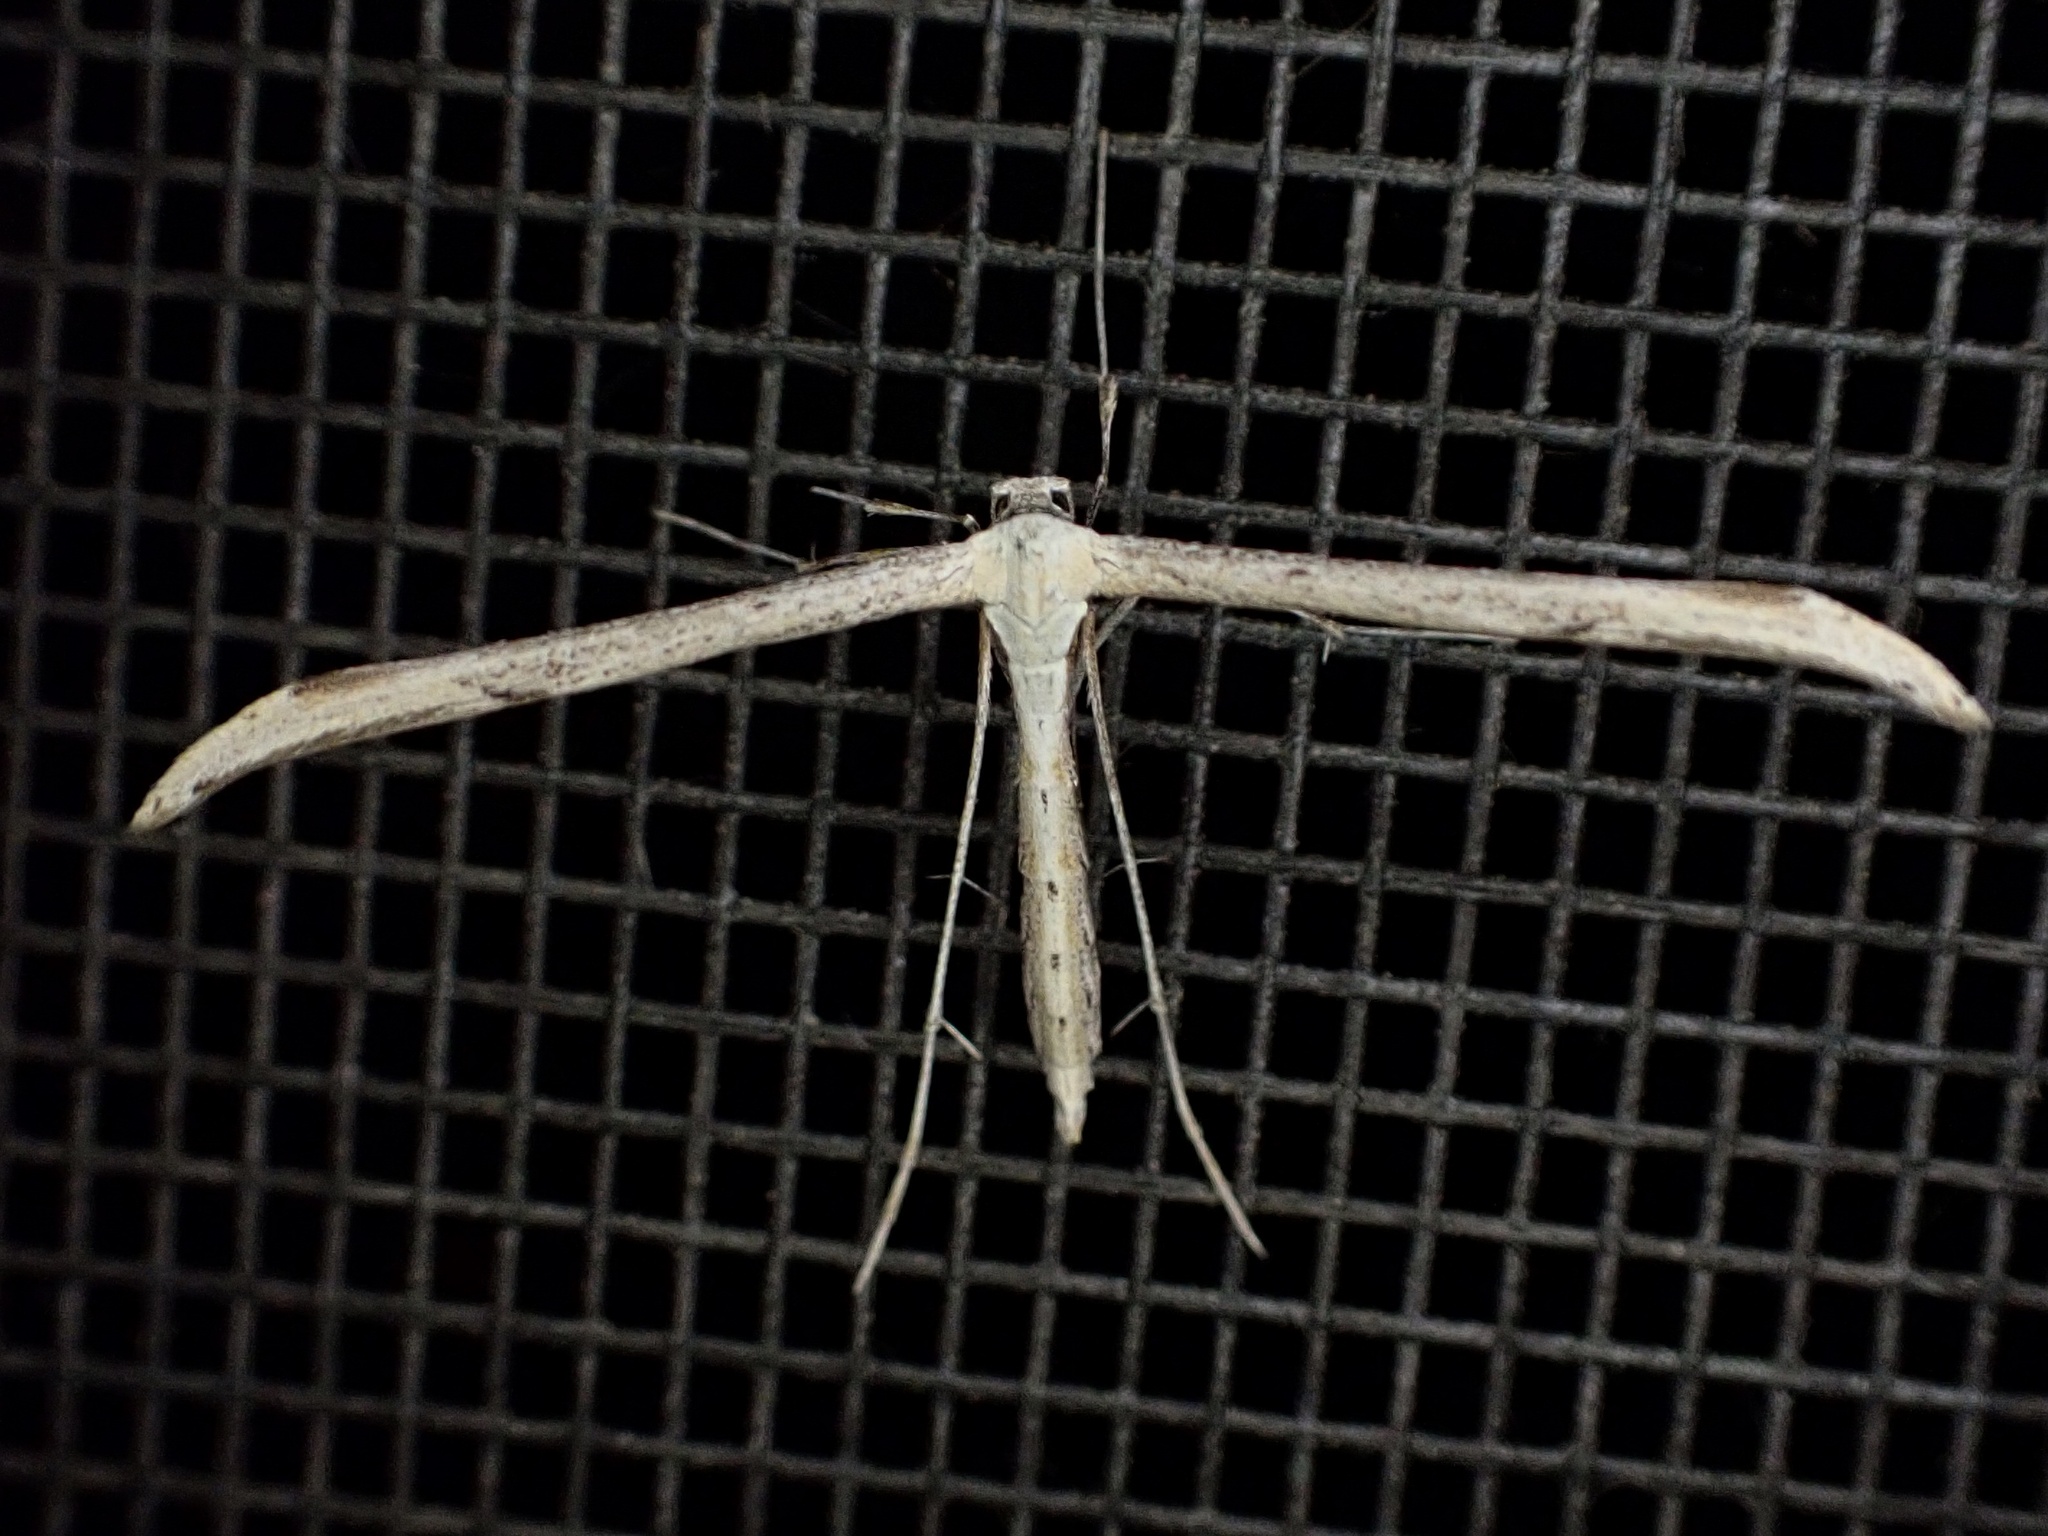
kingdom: Animalia
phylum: Arthropoda
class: Insecta
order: Lepidoptera
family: Pterophoridae
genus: Emmelina
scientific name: Emmelina monodactyla
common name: Common plume
